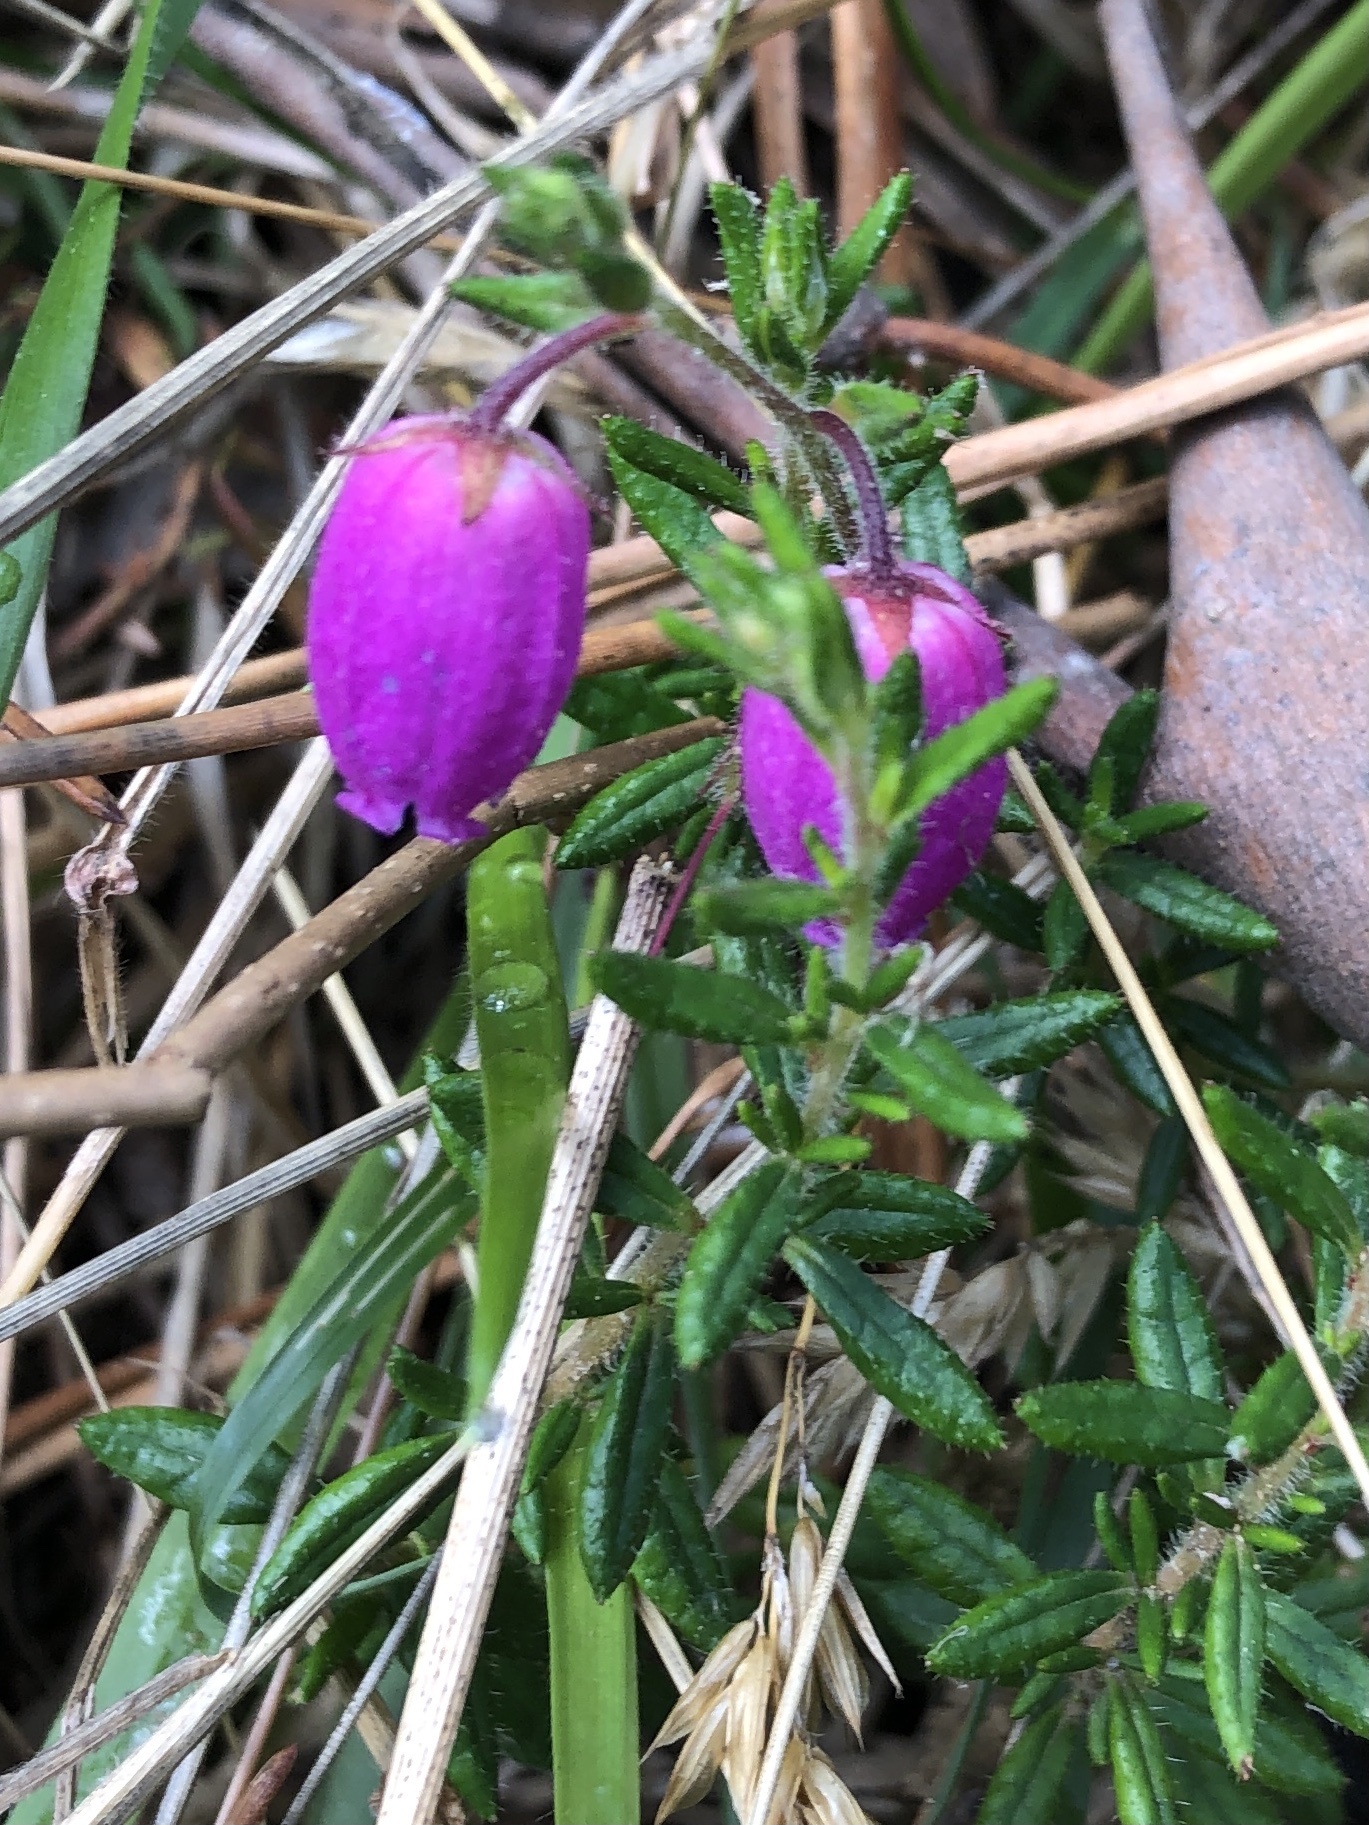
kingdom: Plantae
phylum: Tracheophyta
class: Magnoliopsida
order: Ericales
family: Ericaceae
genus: Daboecia
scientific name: Daboecia cantabrica
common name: St. dabeoc's-heath
